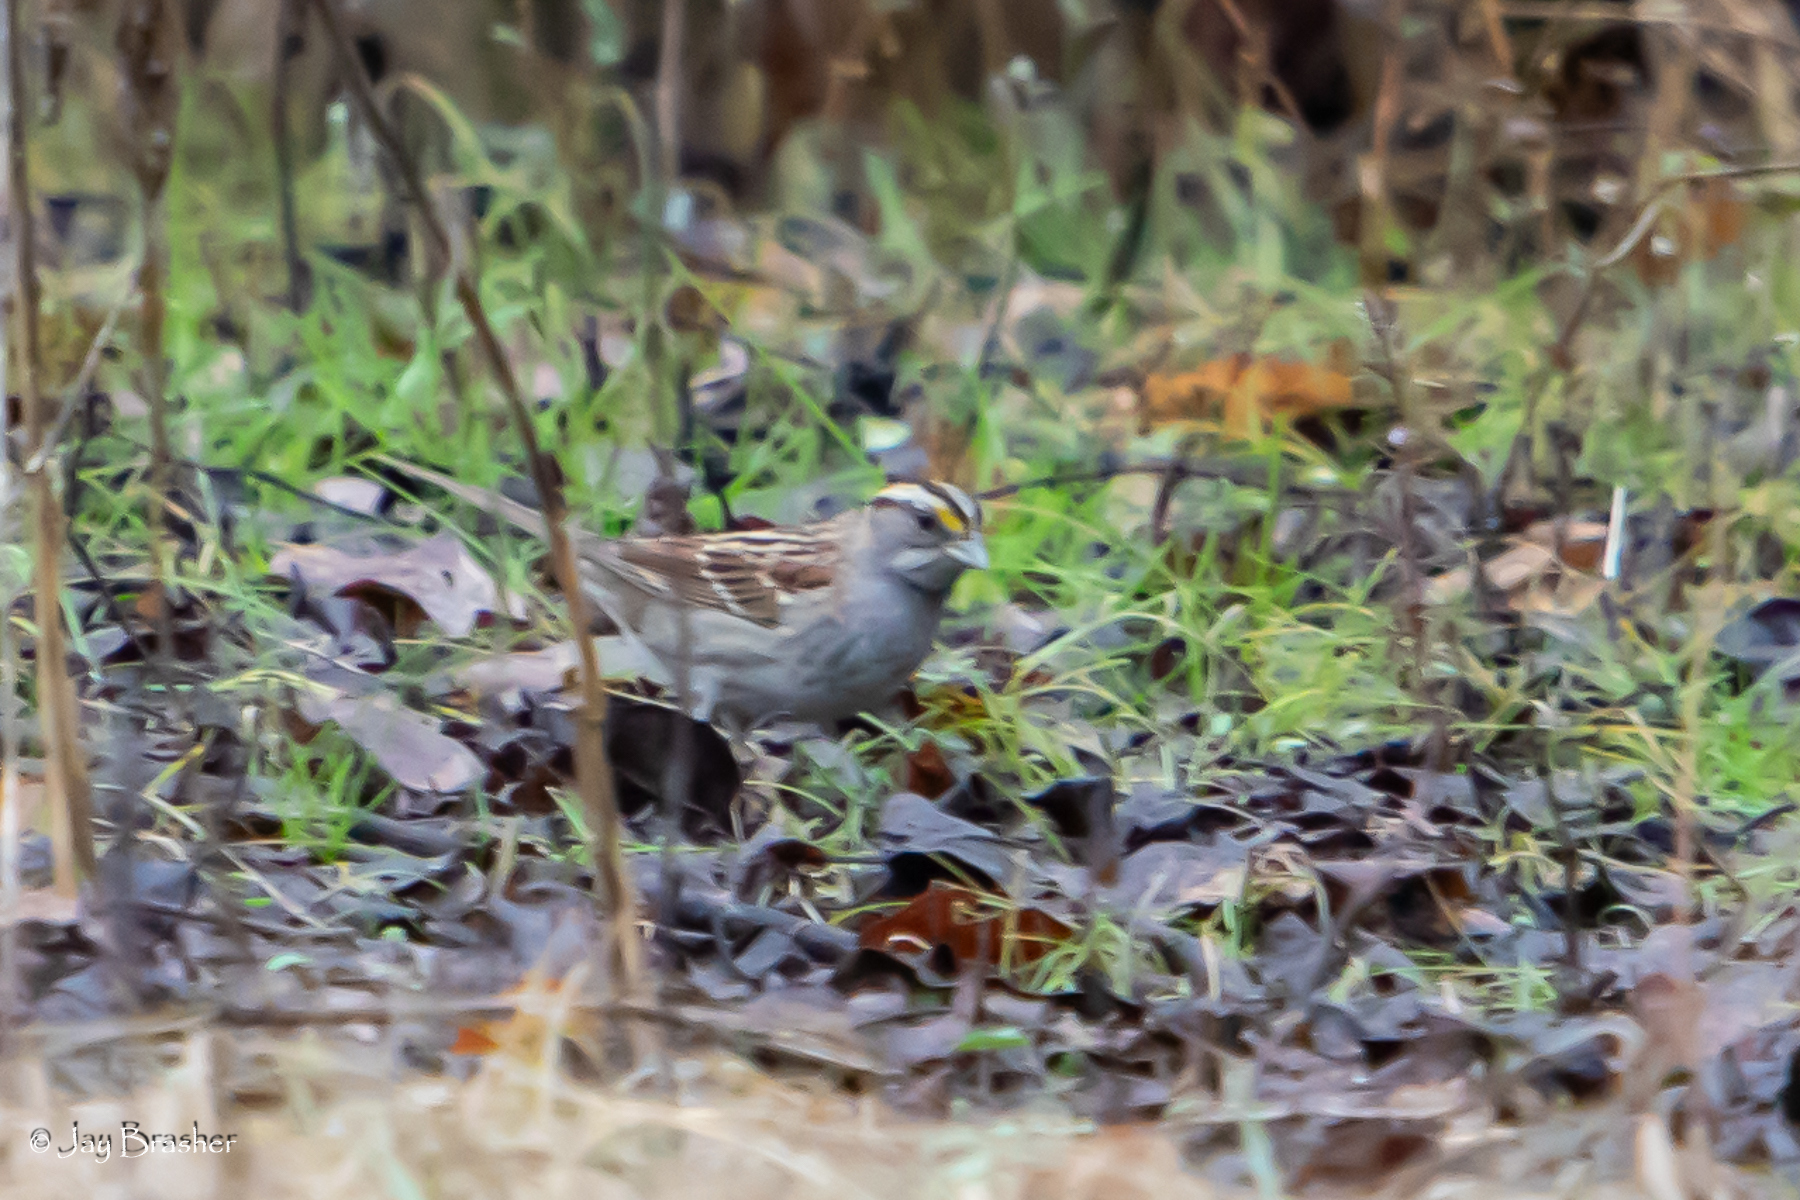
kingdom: Animalia
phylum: Chordata
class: Aves
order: Passeriformes
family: Passerellidae
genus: Zonotrichia
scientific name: Zonotrichia albicollis
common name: White-throated sparrow
